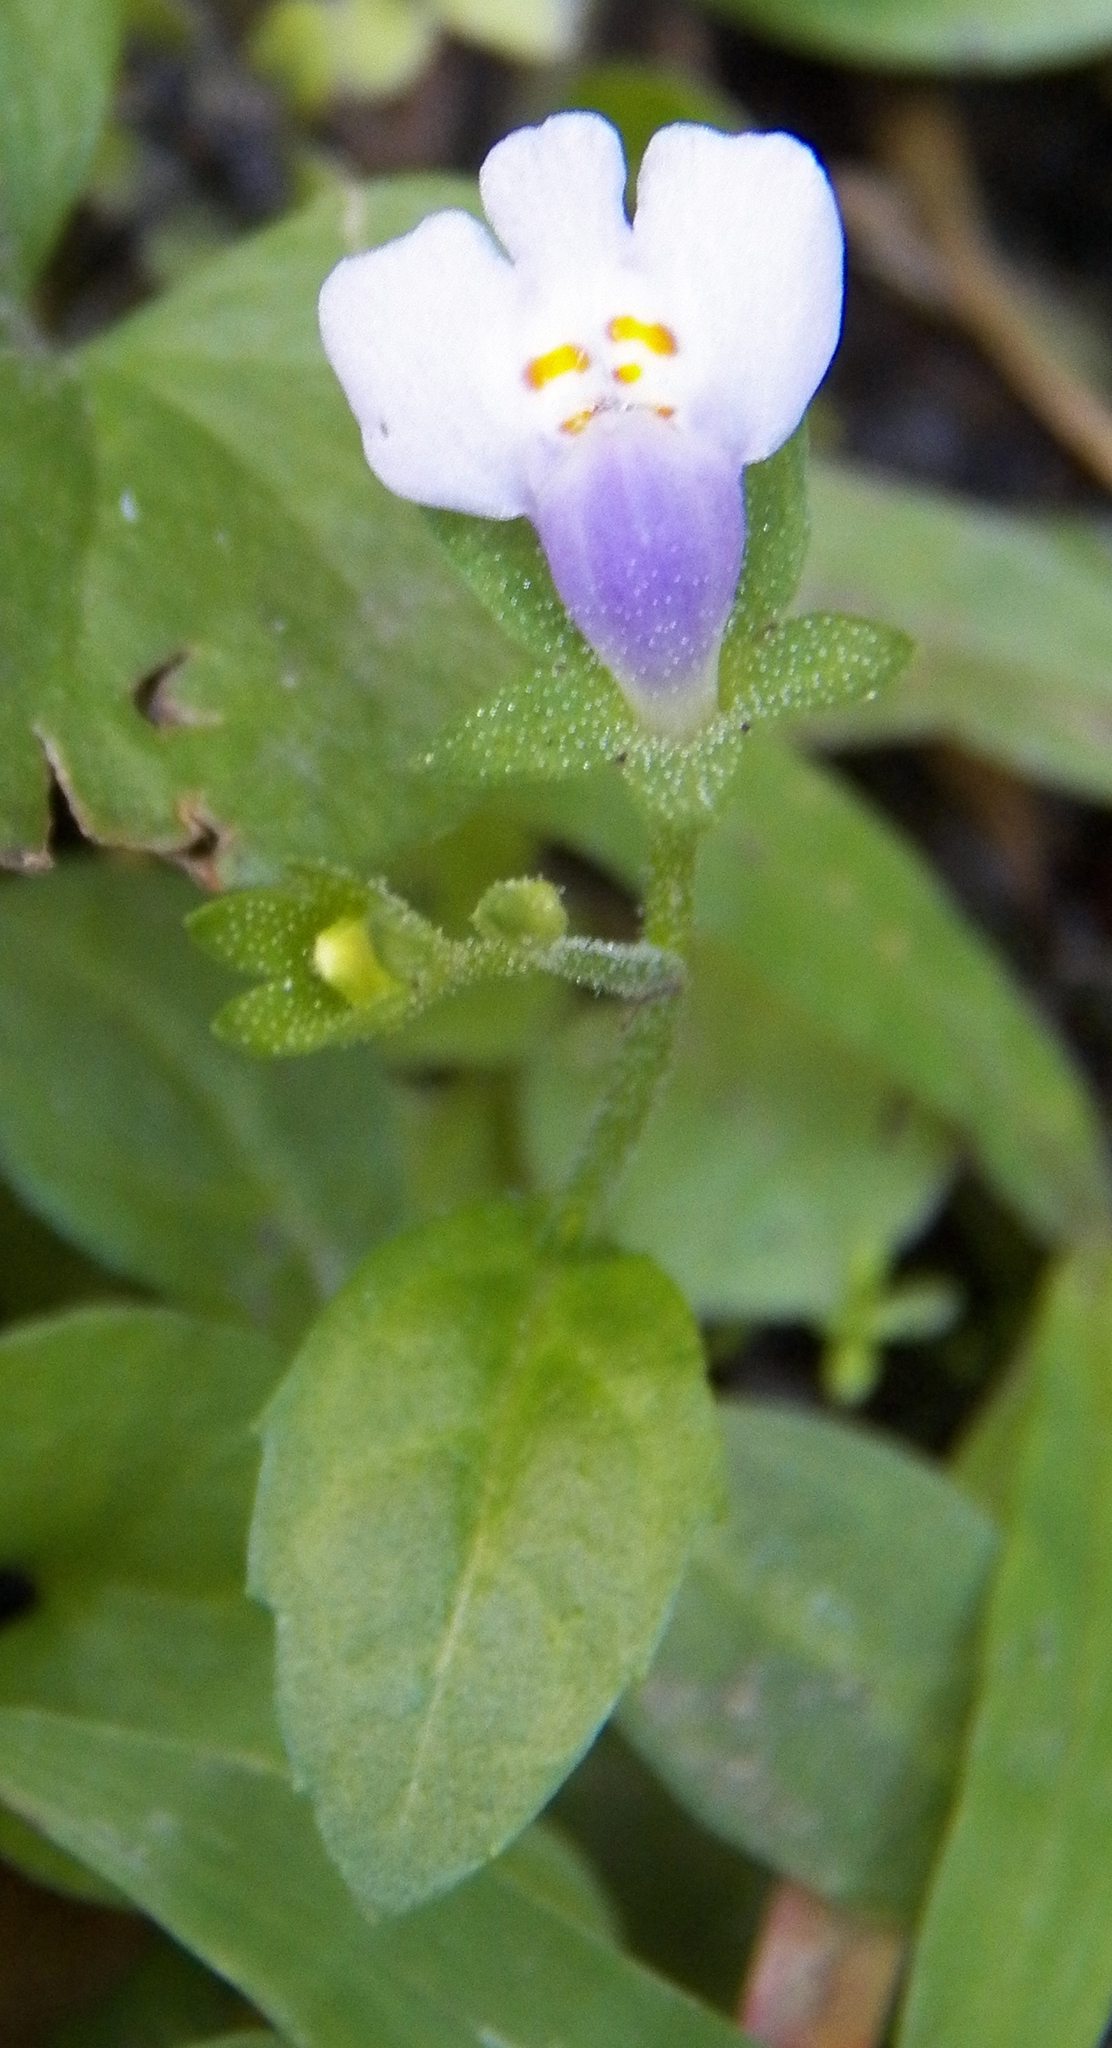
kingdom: Plantae
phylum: Tracheophyta
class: Magnoliopsida
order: Lamiales
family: Mazaceae
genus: Mazus
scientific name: Mazus pumilus
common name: Japanese mazus
